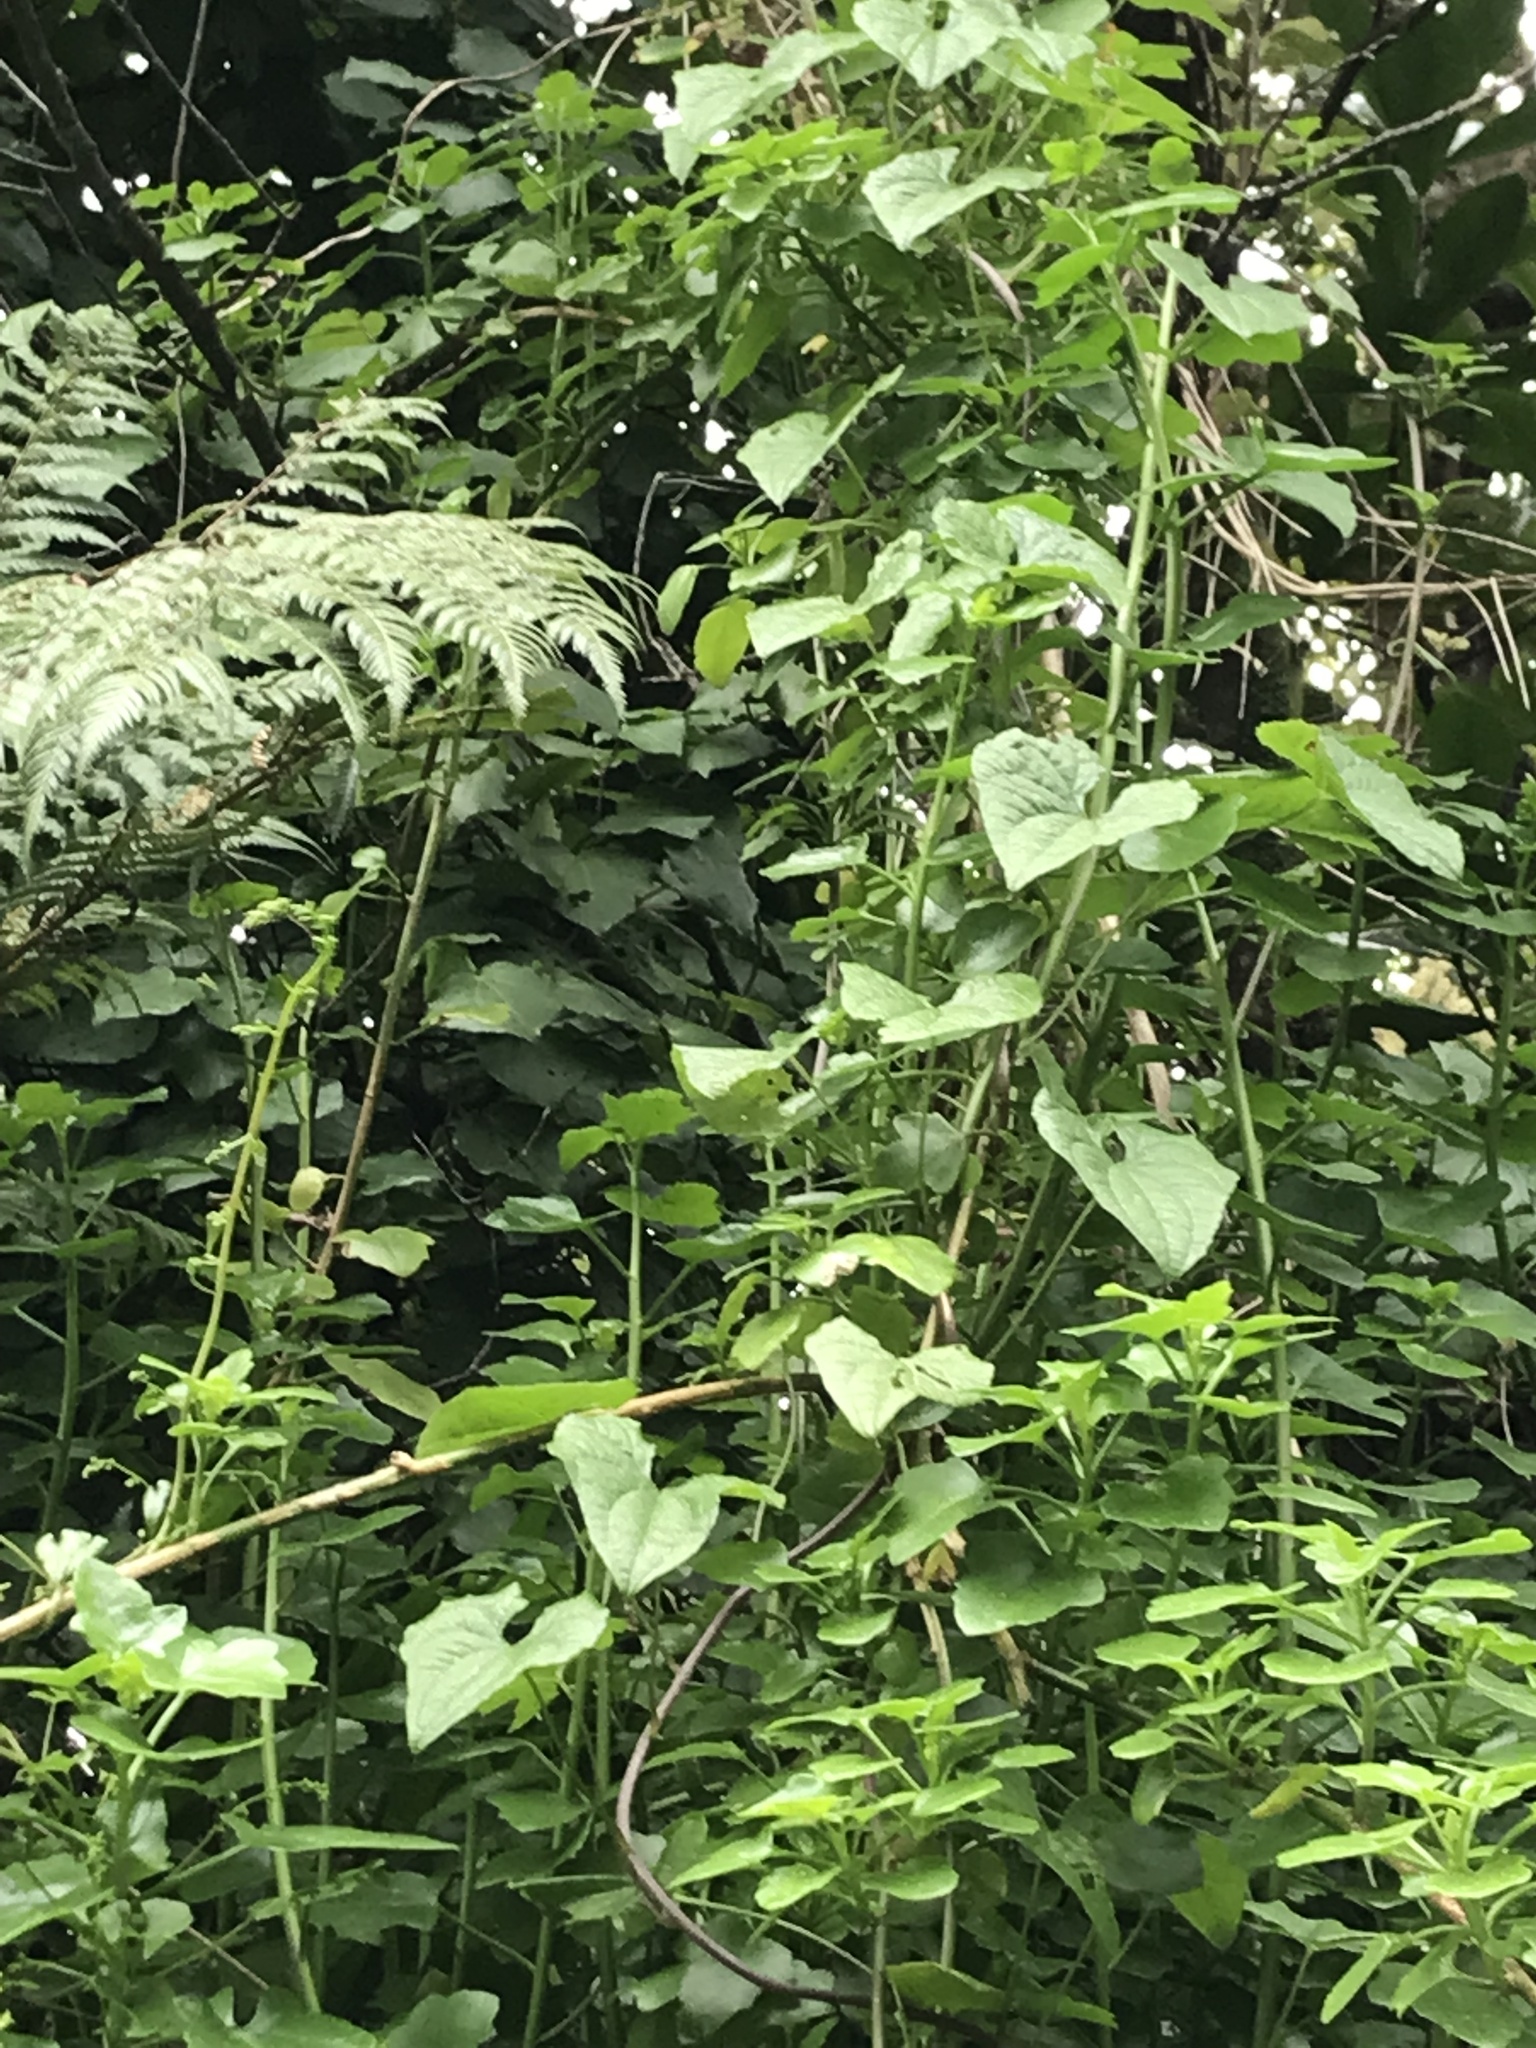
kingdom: Plantae
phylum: Tracheophyta
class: Liliopsida
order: Dioscoreales
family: Dioscoreaceae
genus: Dioscorea
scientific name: Dioscorea communis
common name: Black-bindweed
